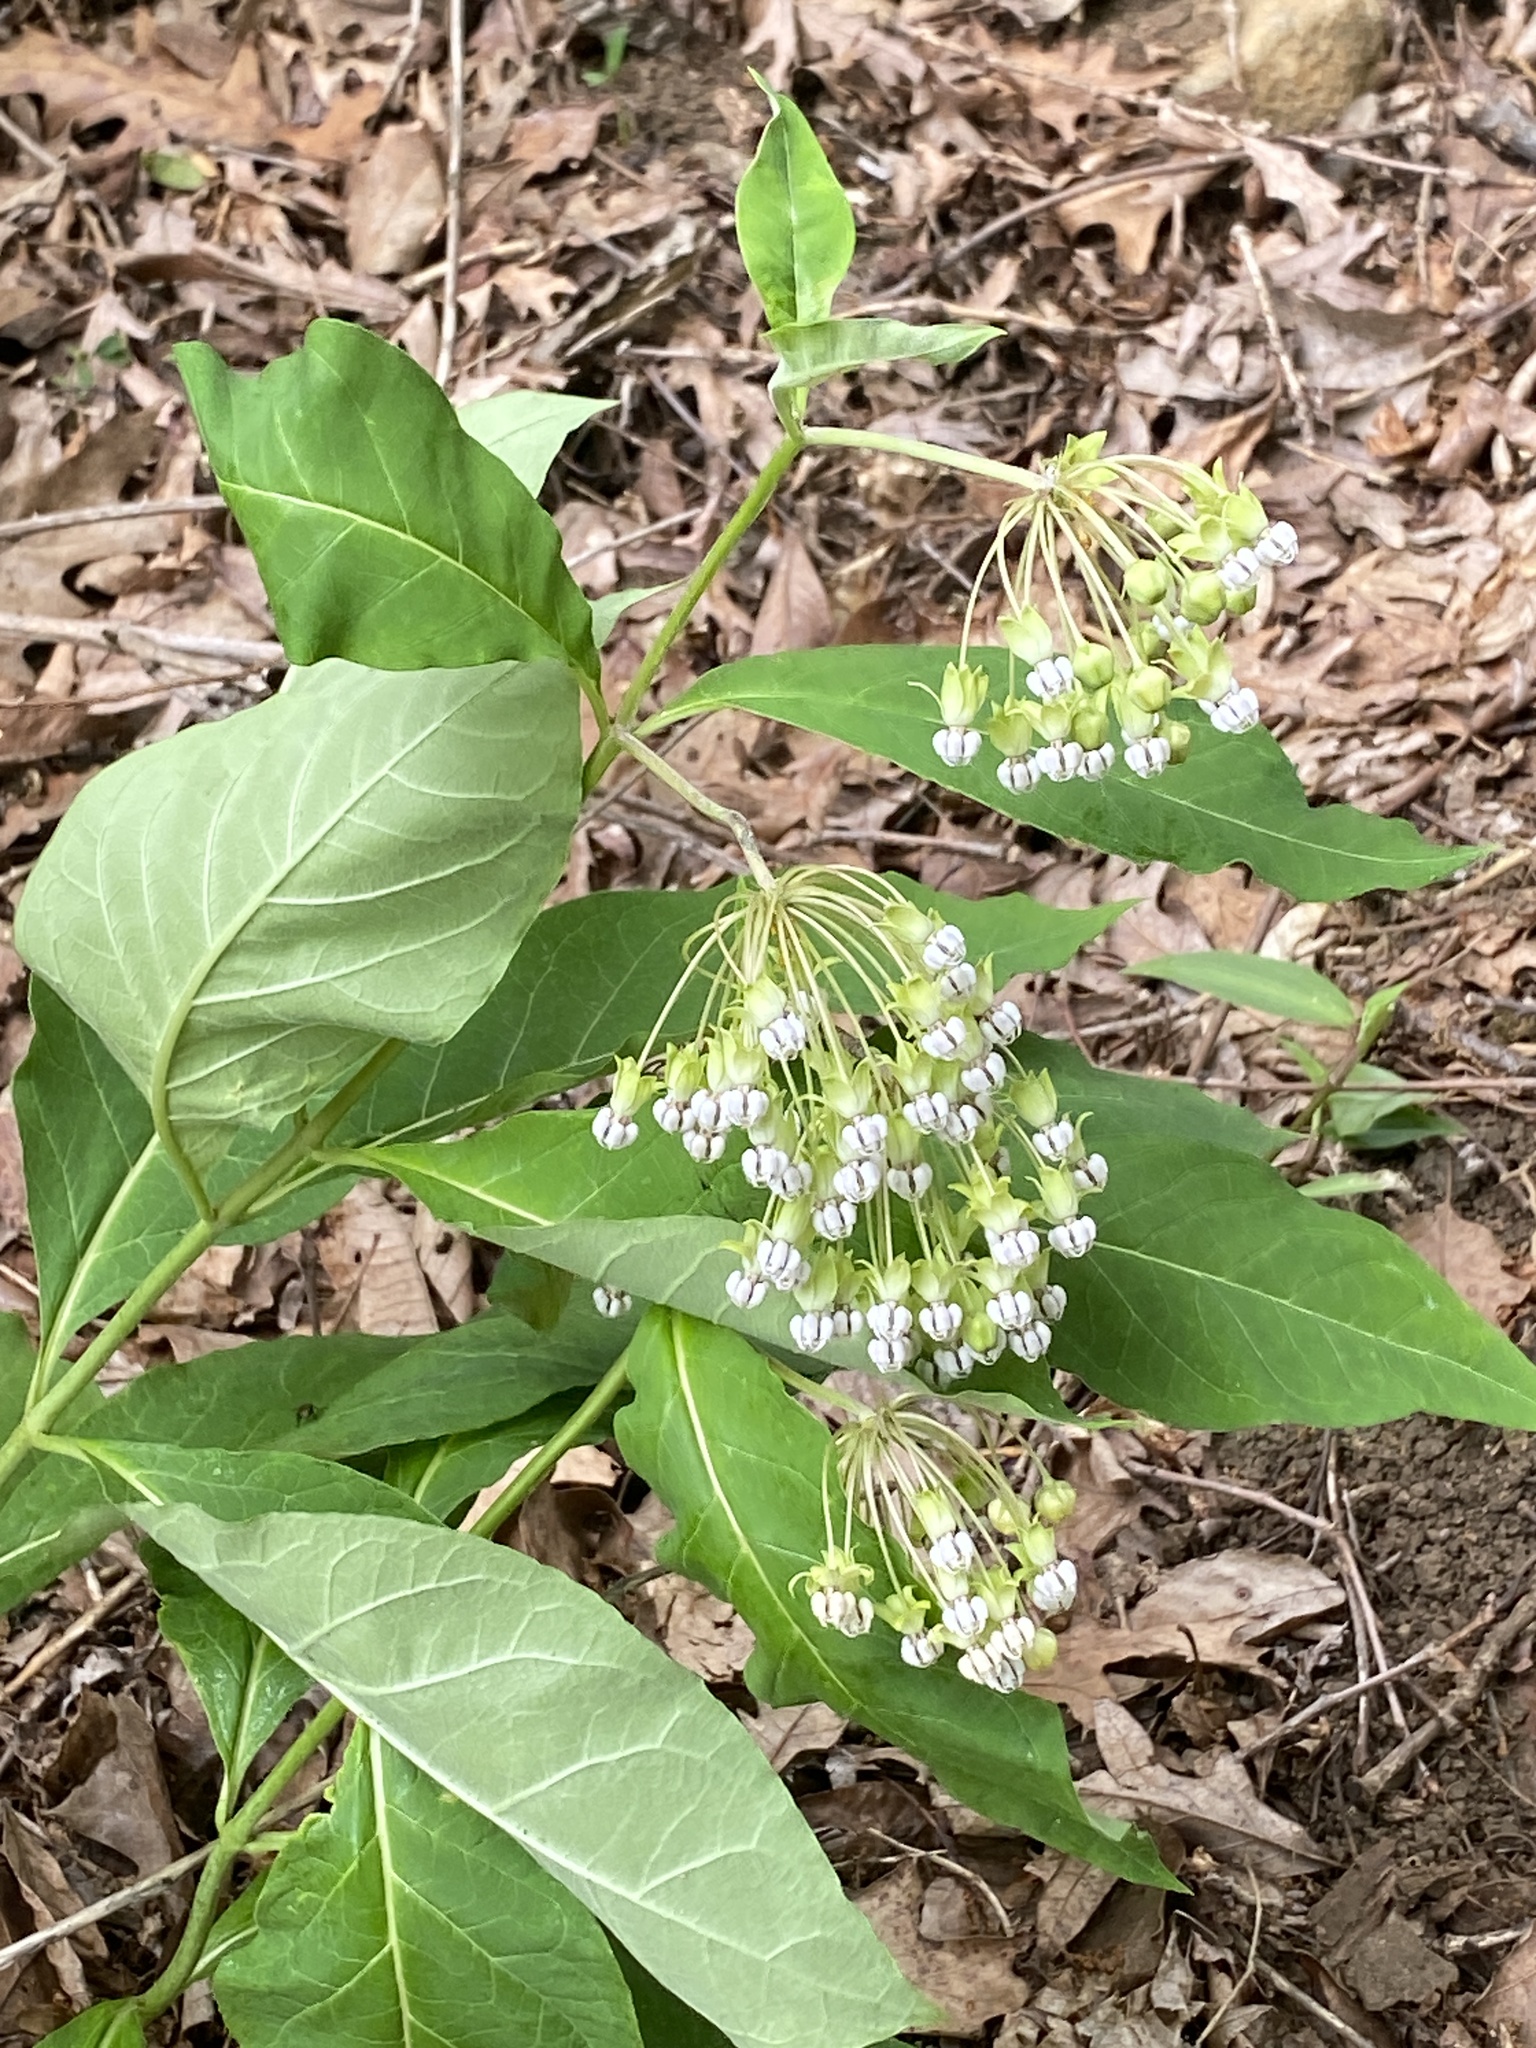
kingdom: Plantae
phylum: Tracheophyta
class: Magnoliopsida
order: Gentianales
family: Apocynaceae
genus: Asclepias
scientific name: Asclepias exaltata
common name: Poke milkweed
